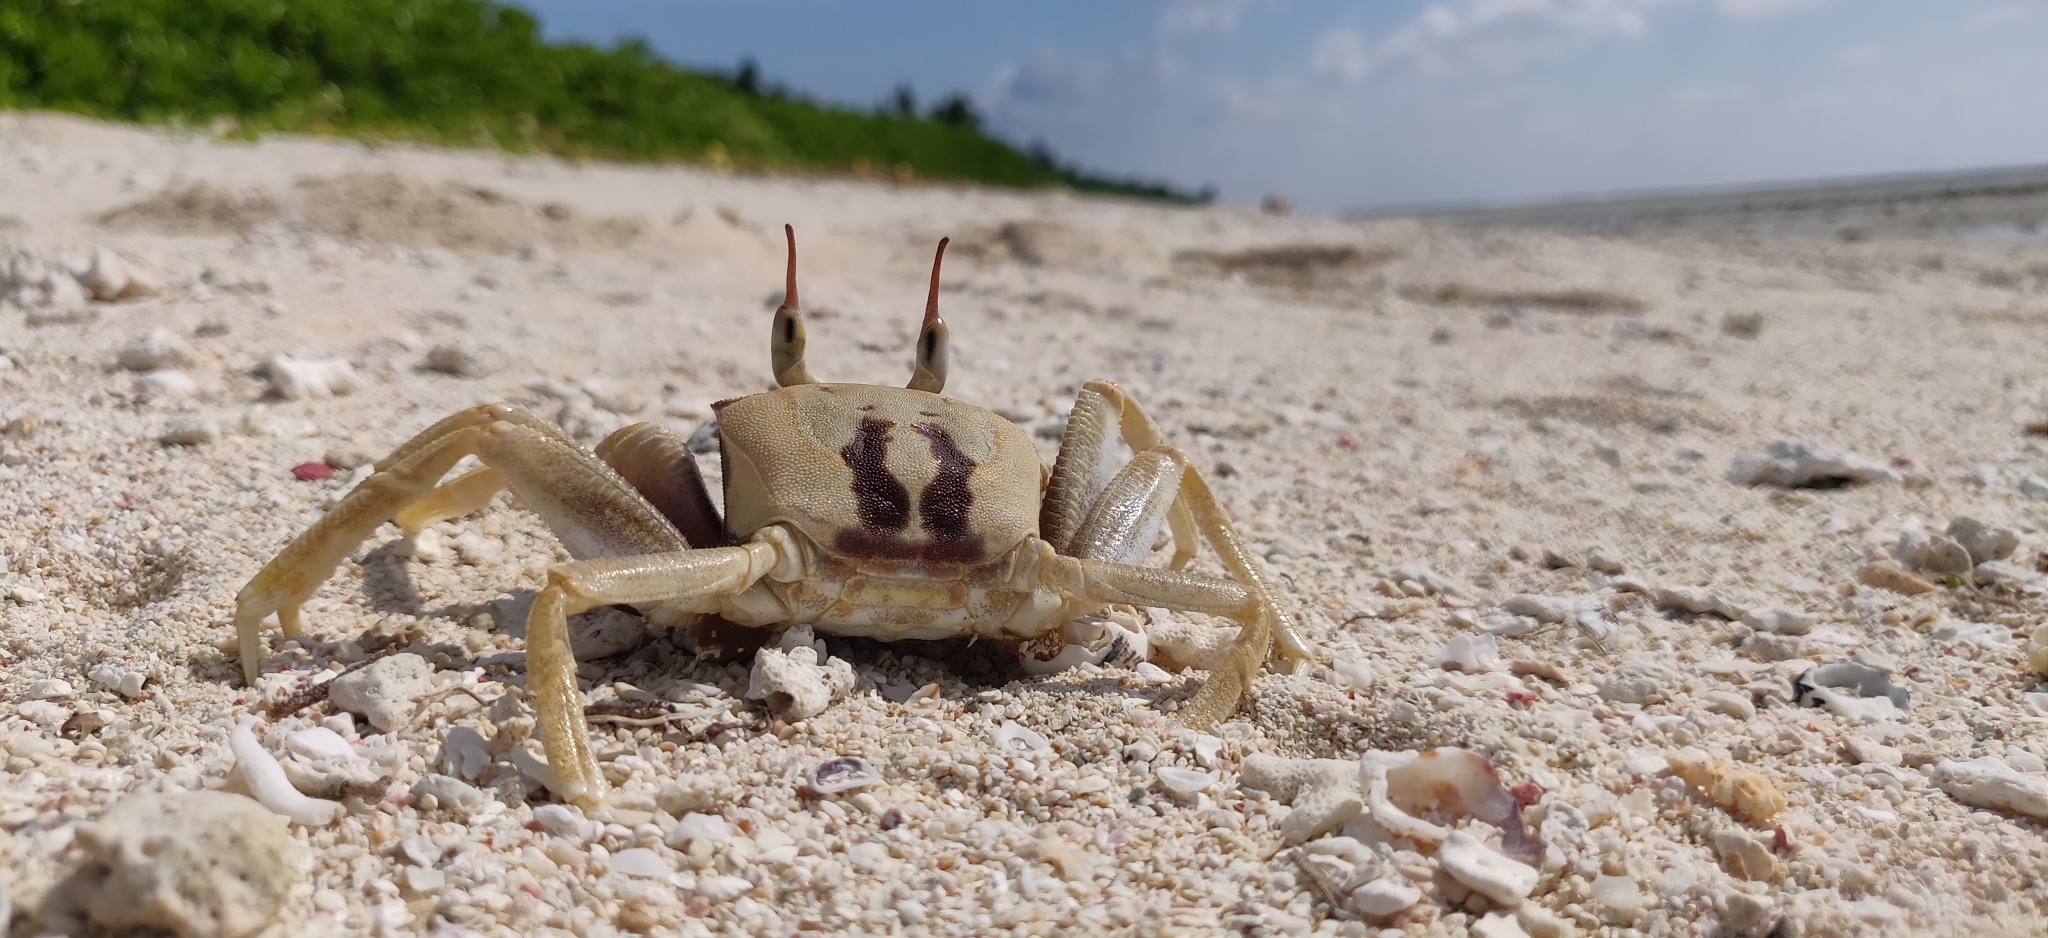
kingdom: Animalia
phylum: Arthropoda
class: Malacostraca
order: Decapoda
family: Ocypodidae
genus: Ocypode
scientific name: Ocypode ceratophthalmus
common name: Indo-pacific ghost crab
